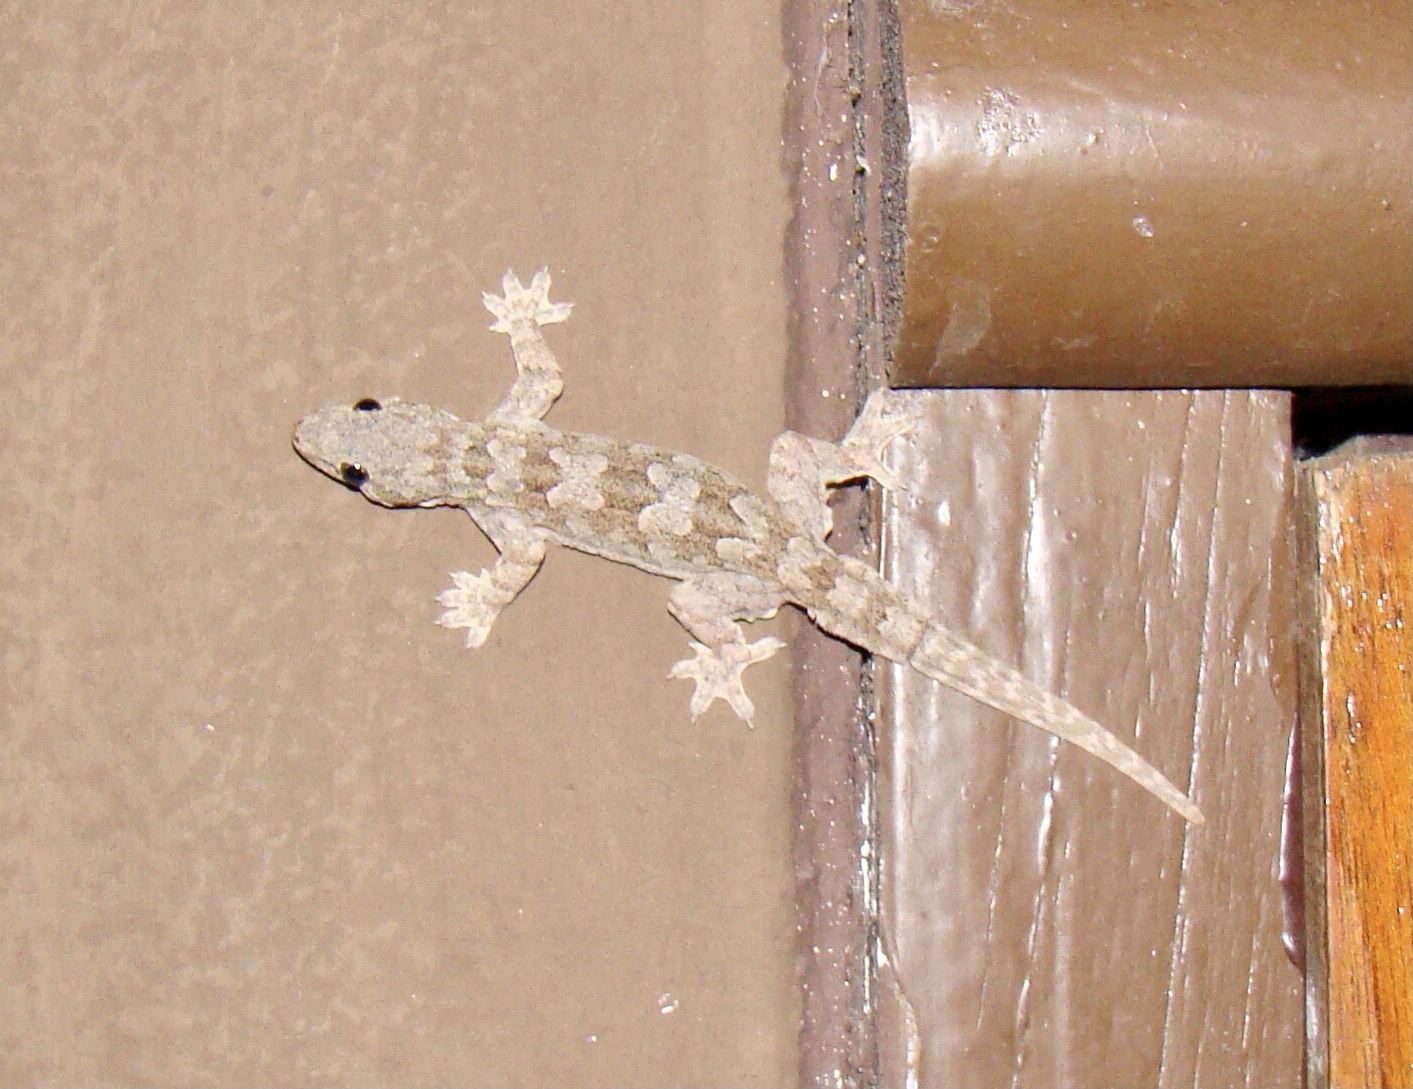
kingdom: Animalia
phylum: Chordata
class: Squamata
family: Gekkonidae
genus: Hemidactylus
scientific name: Hemidactylus platyurus
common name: Flat-tailed house gecko
